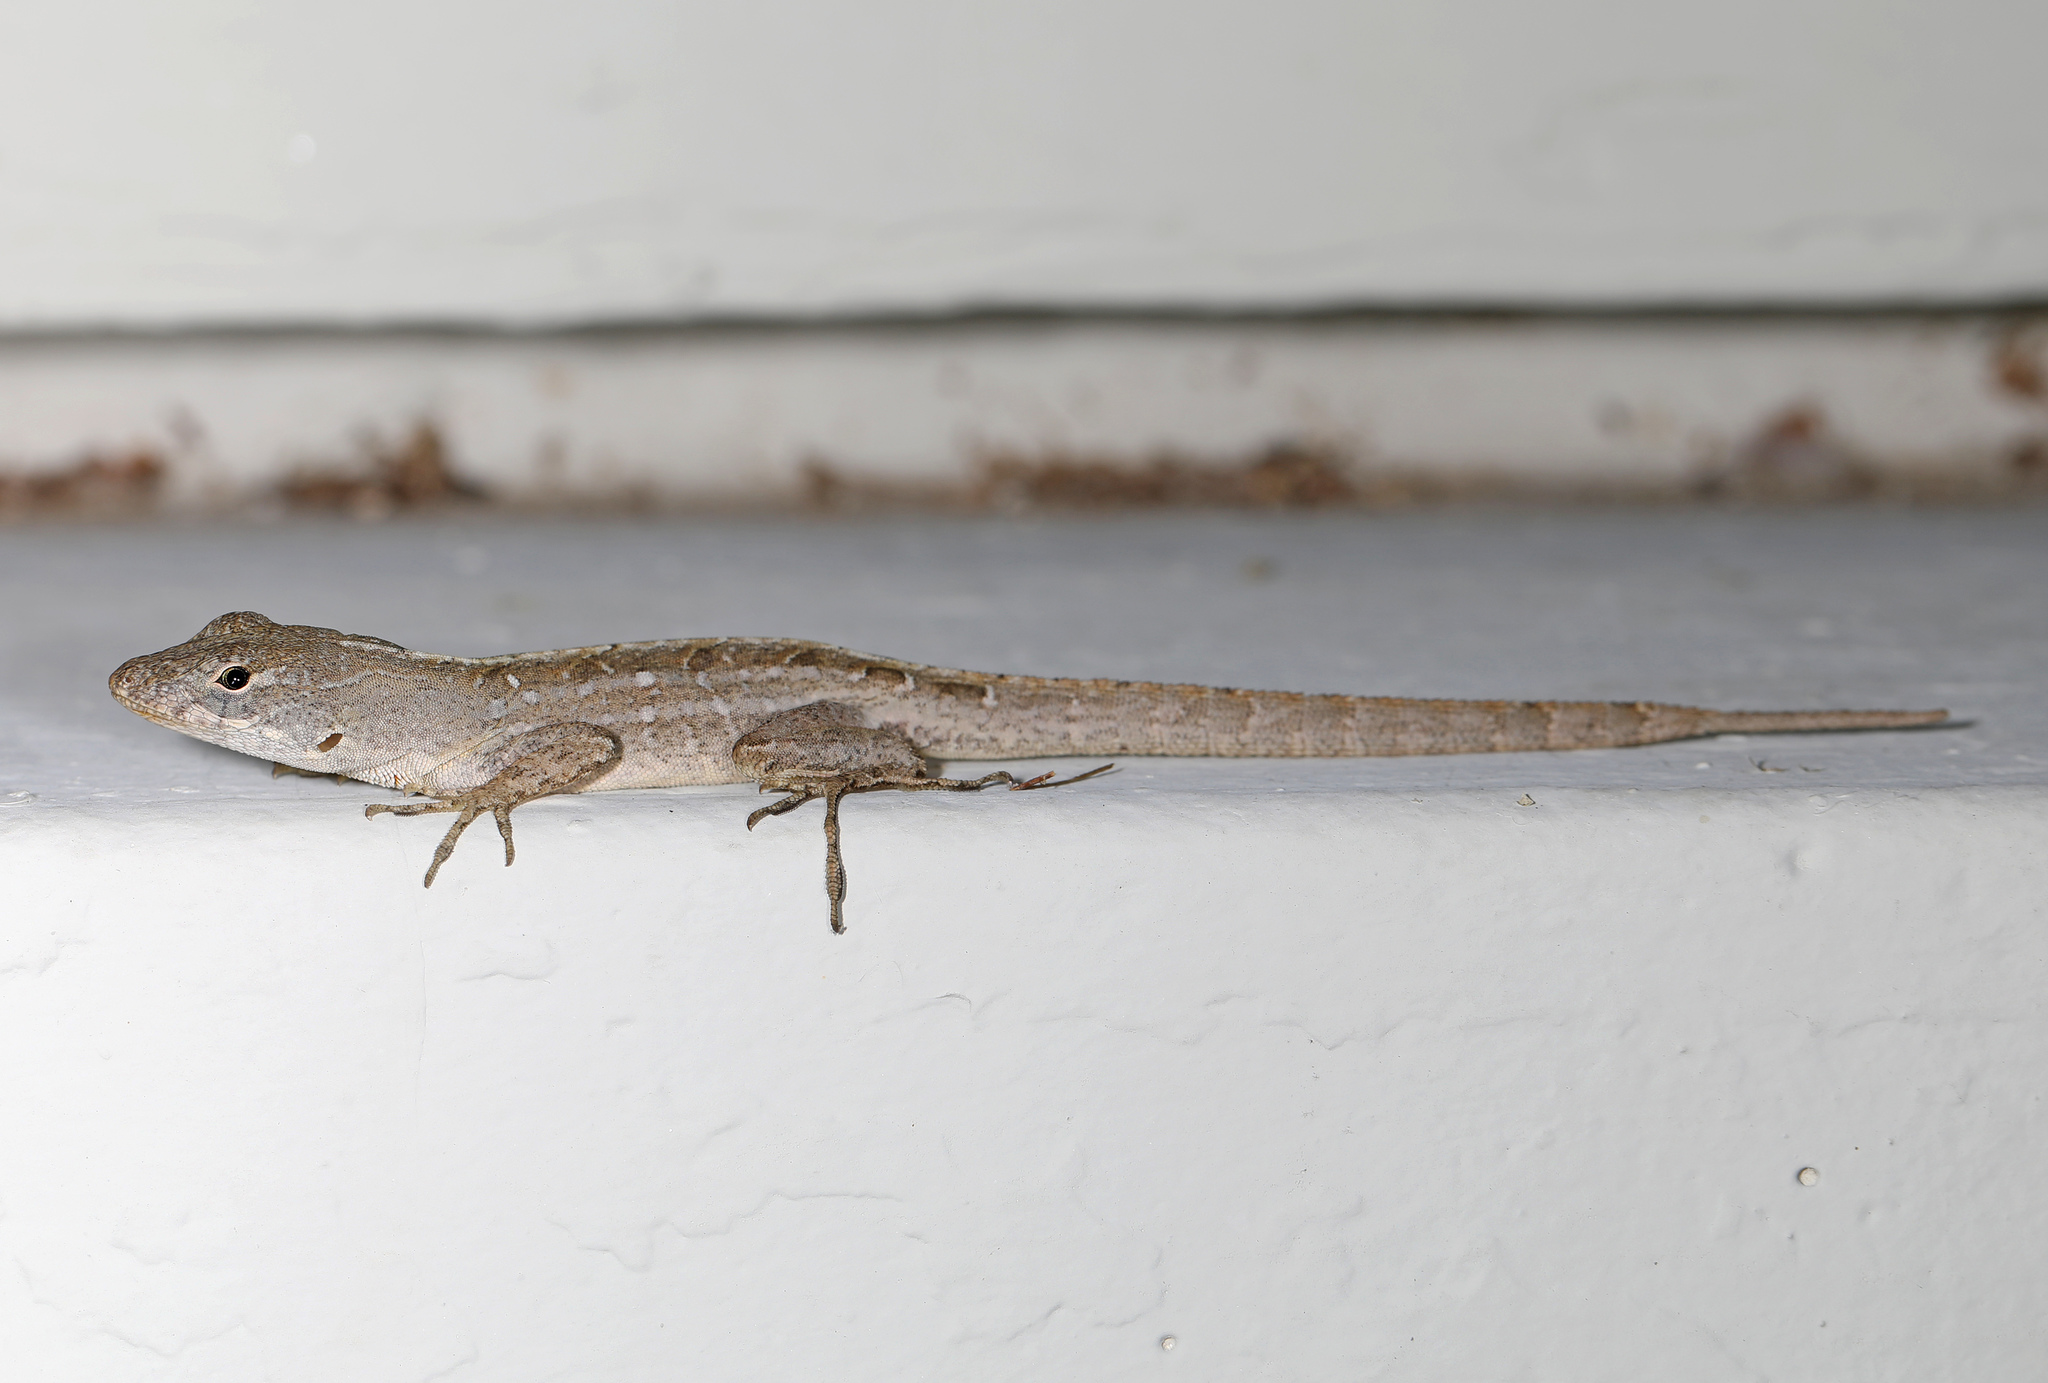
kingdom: Animalia
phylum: Chordata
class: Squamata
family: Dactyloidae
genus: Anolis
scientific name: Anolis sagrei
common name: Brown anole
